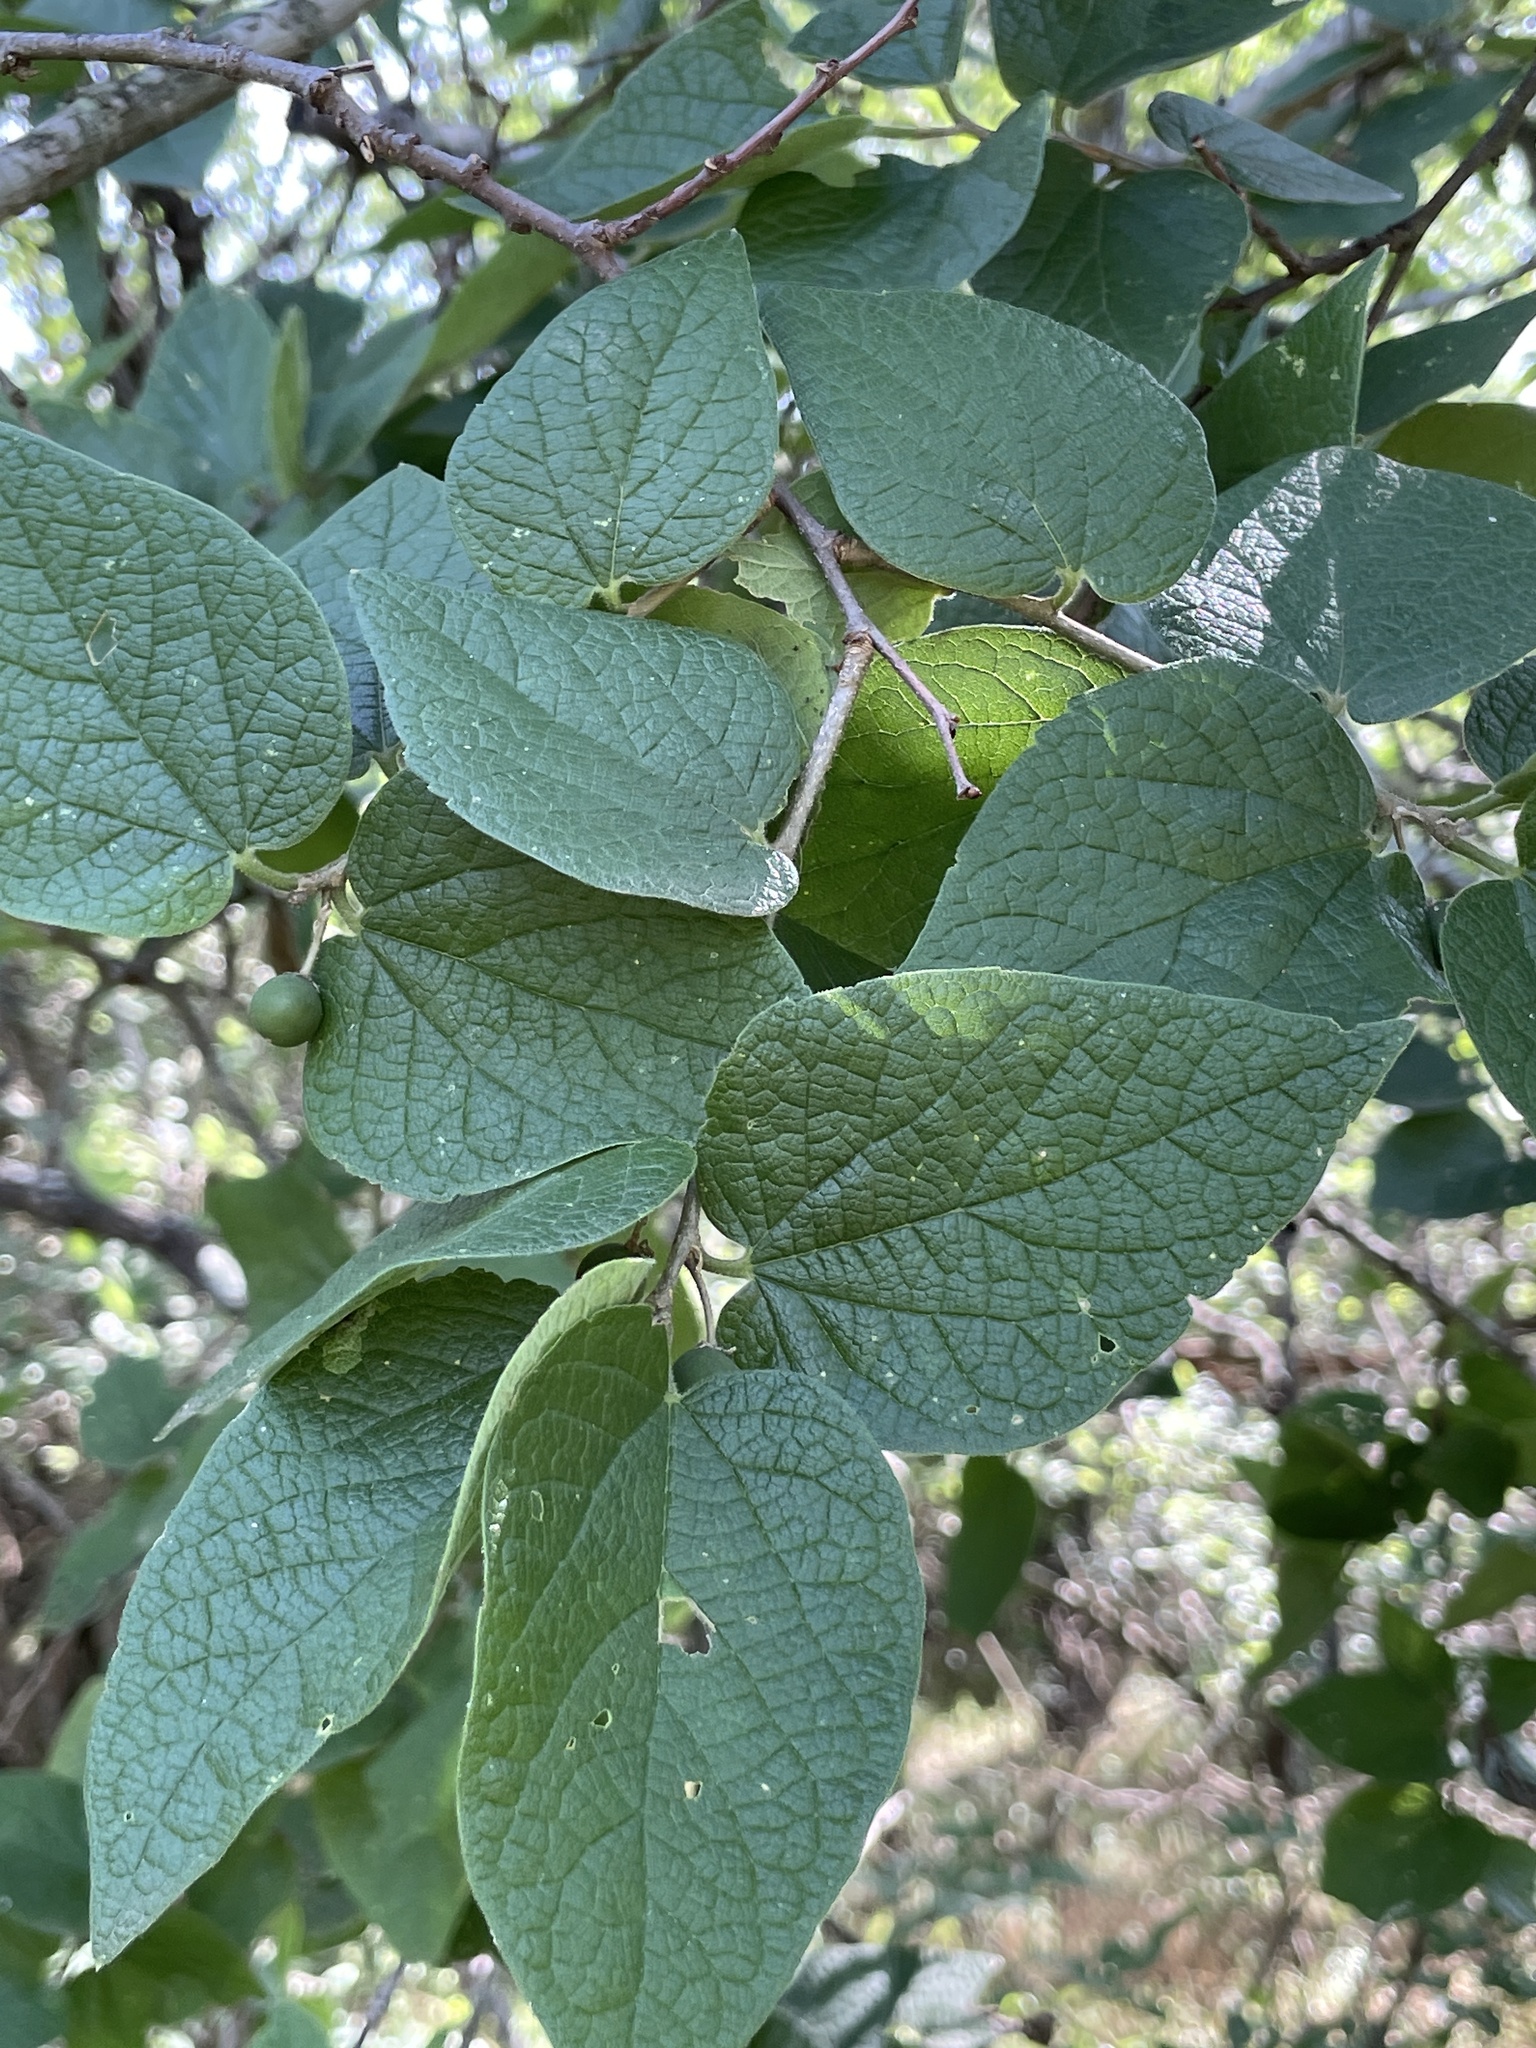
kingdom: Plantae
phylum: Tracheophyta
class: Magnoliopsida
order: Rosales
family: Cannabaceae
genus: Celtis
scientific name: Celtis reticulata
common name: Netleaf hackberry
